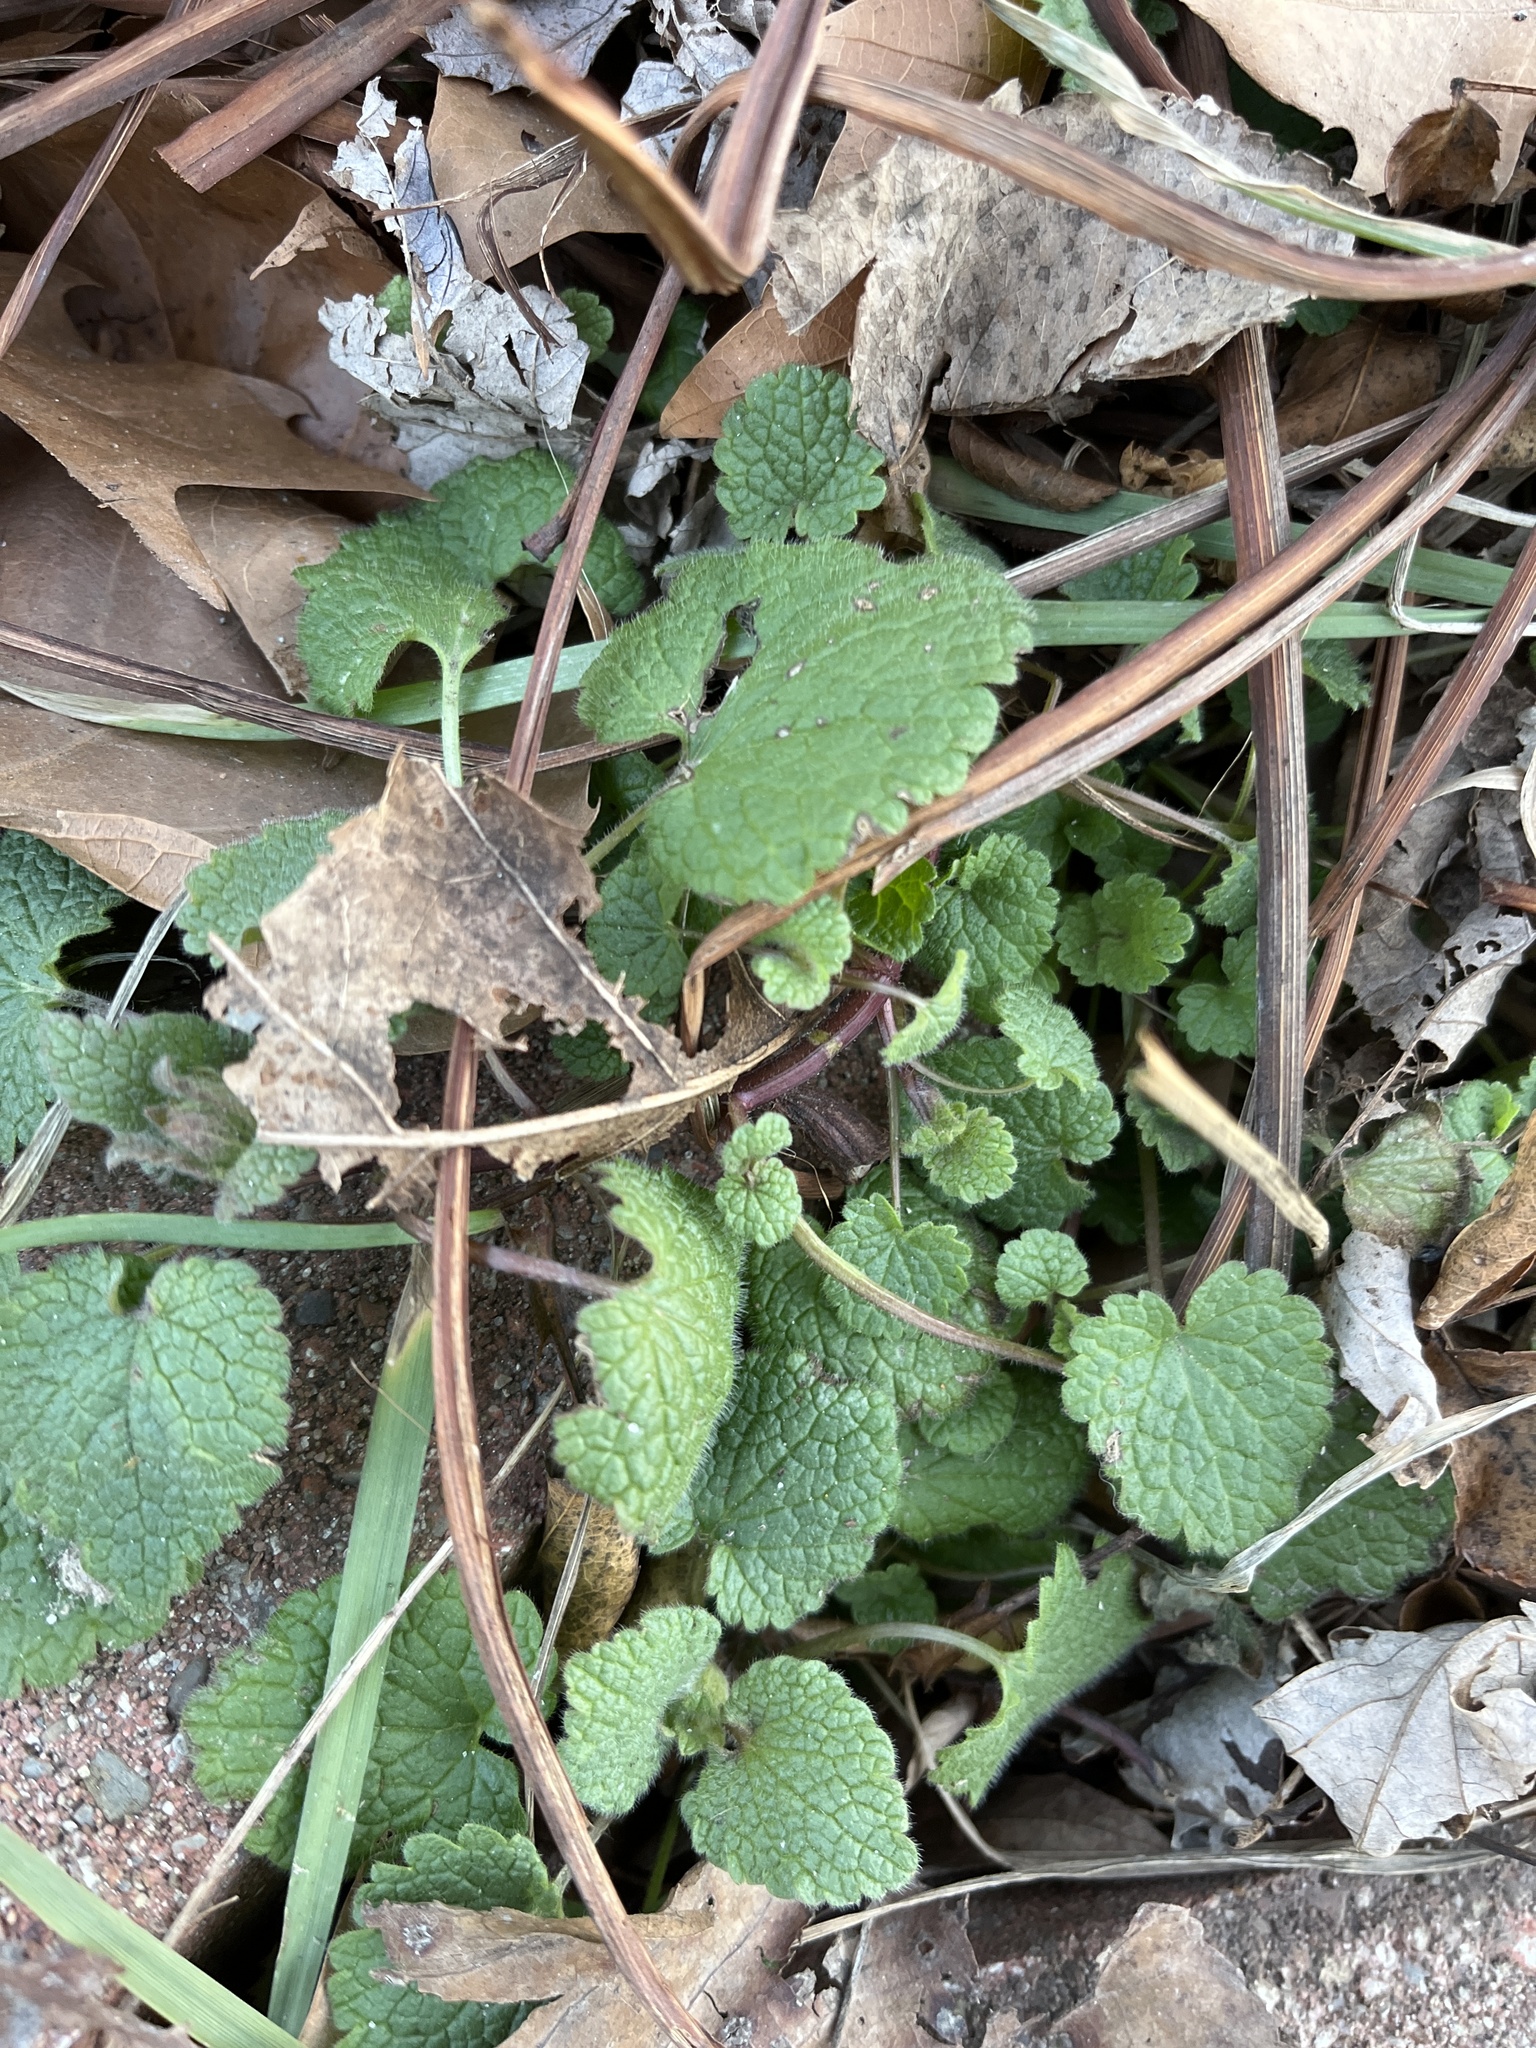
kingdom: Plantae
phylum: Tracheophyta
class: Magnoliopsida
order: Lamiales
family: Lamiaceae
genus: Lamium
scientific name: Lamium purpureum
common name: Red dead-nettle
